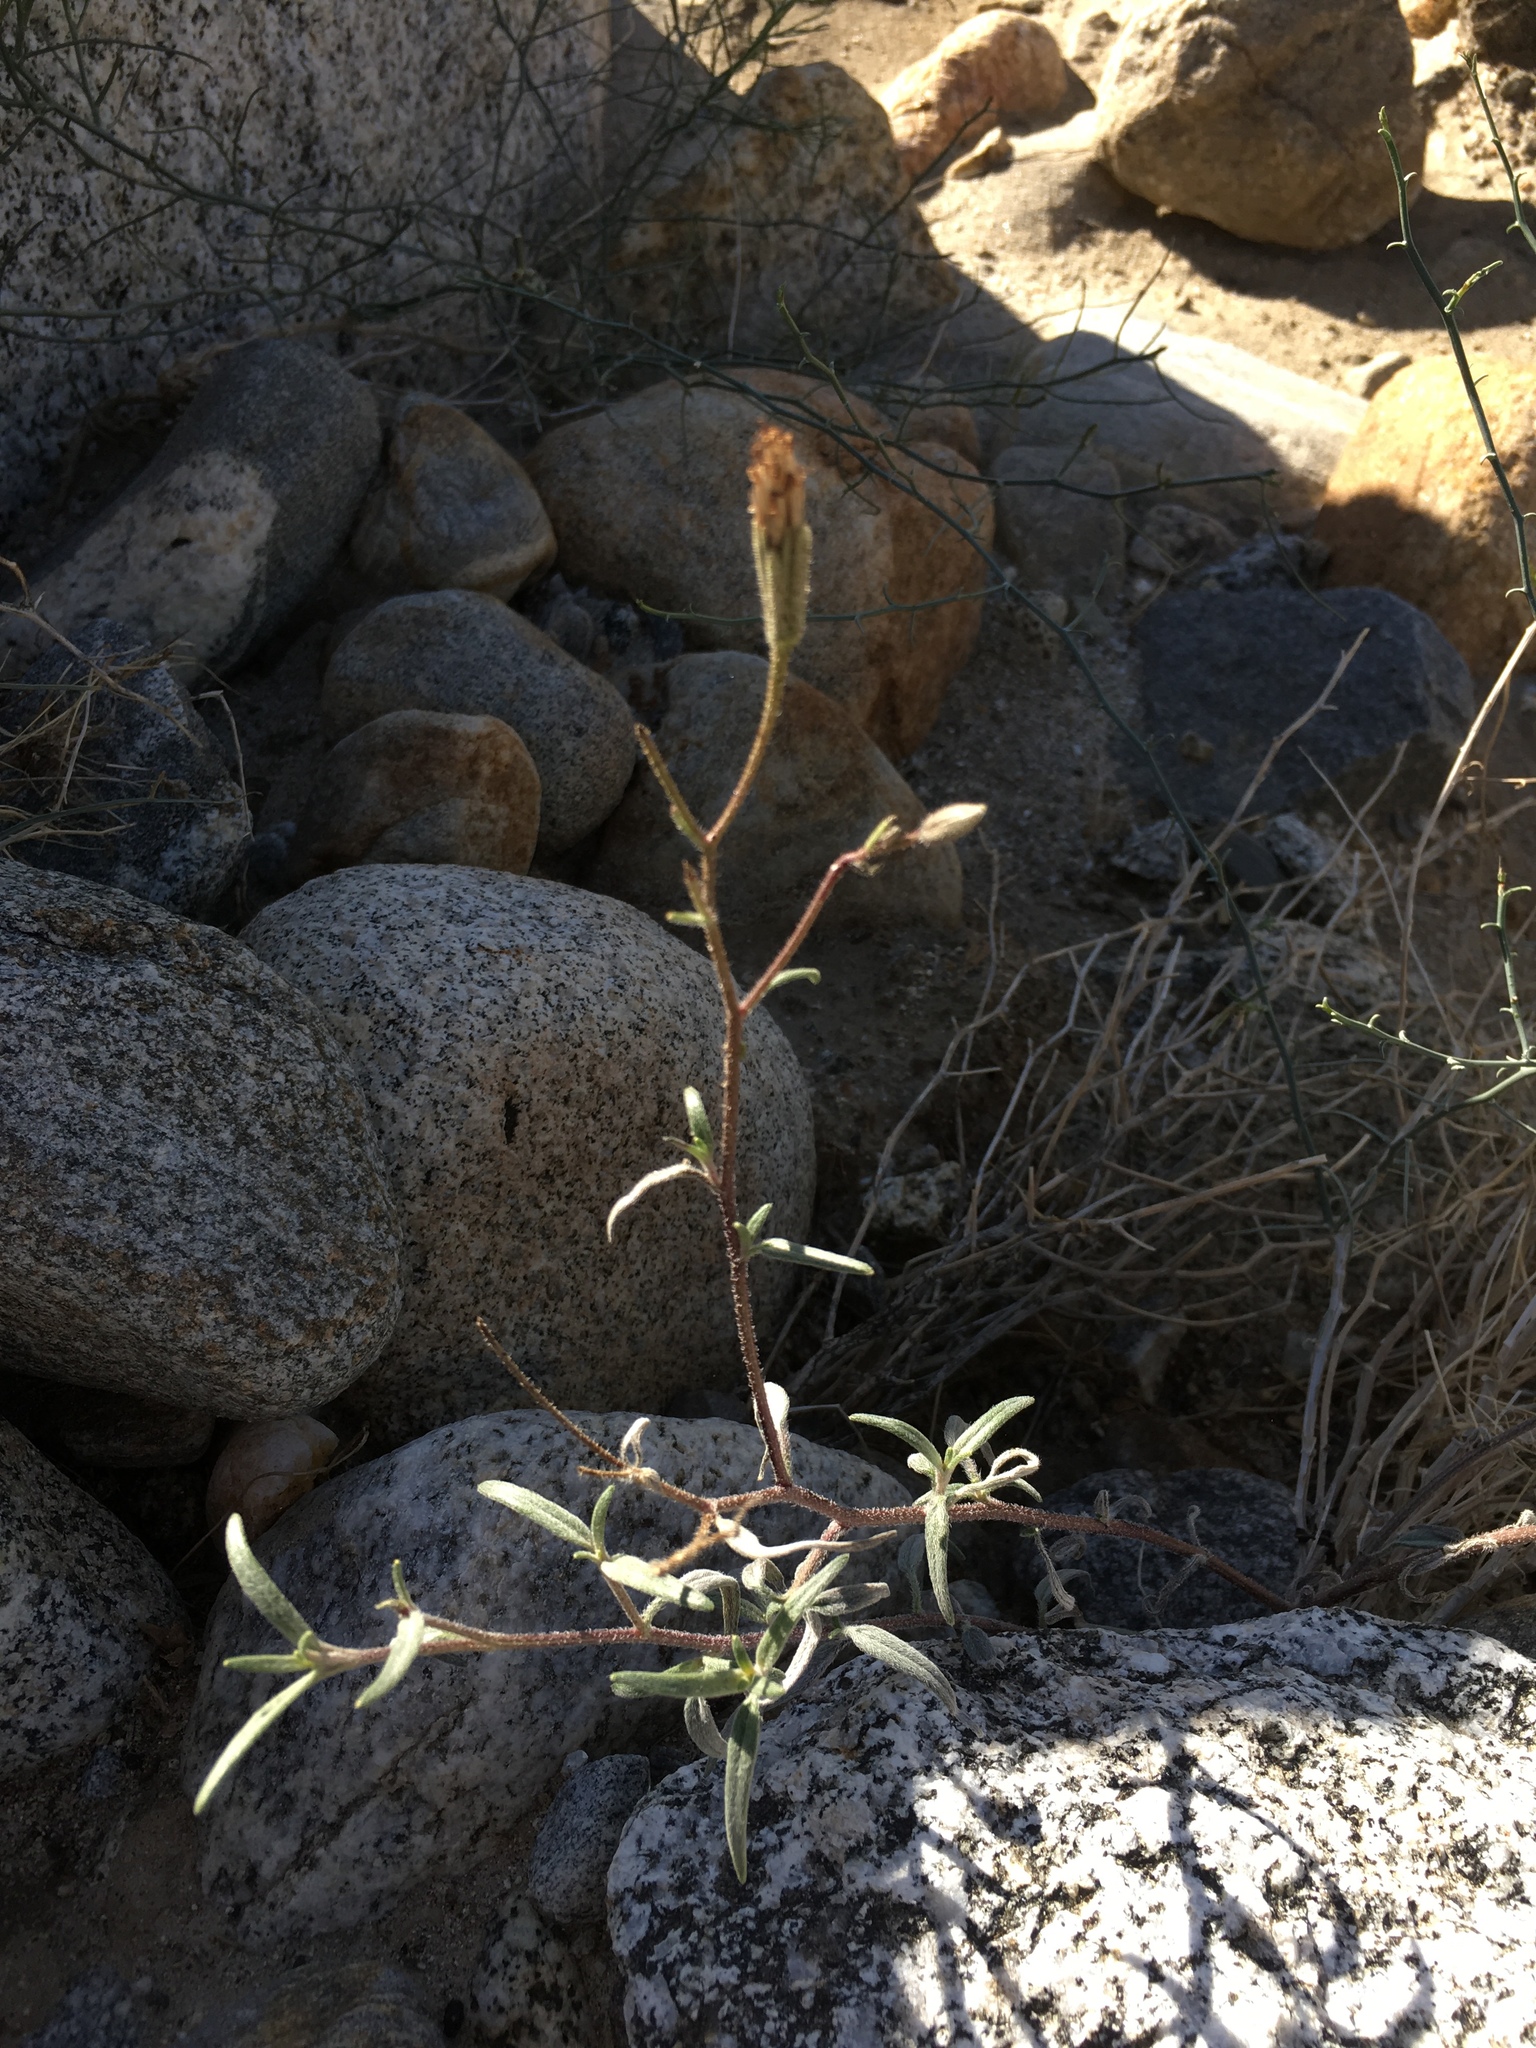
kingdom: Plantae
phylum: Tracheophyta
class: Magnoliopsida
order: Asterales
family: Asteraceae
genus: Palafoxia
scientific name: Palafoxia arida
